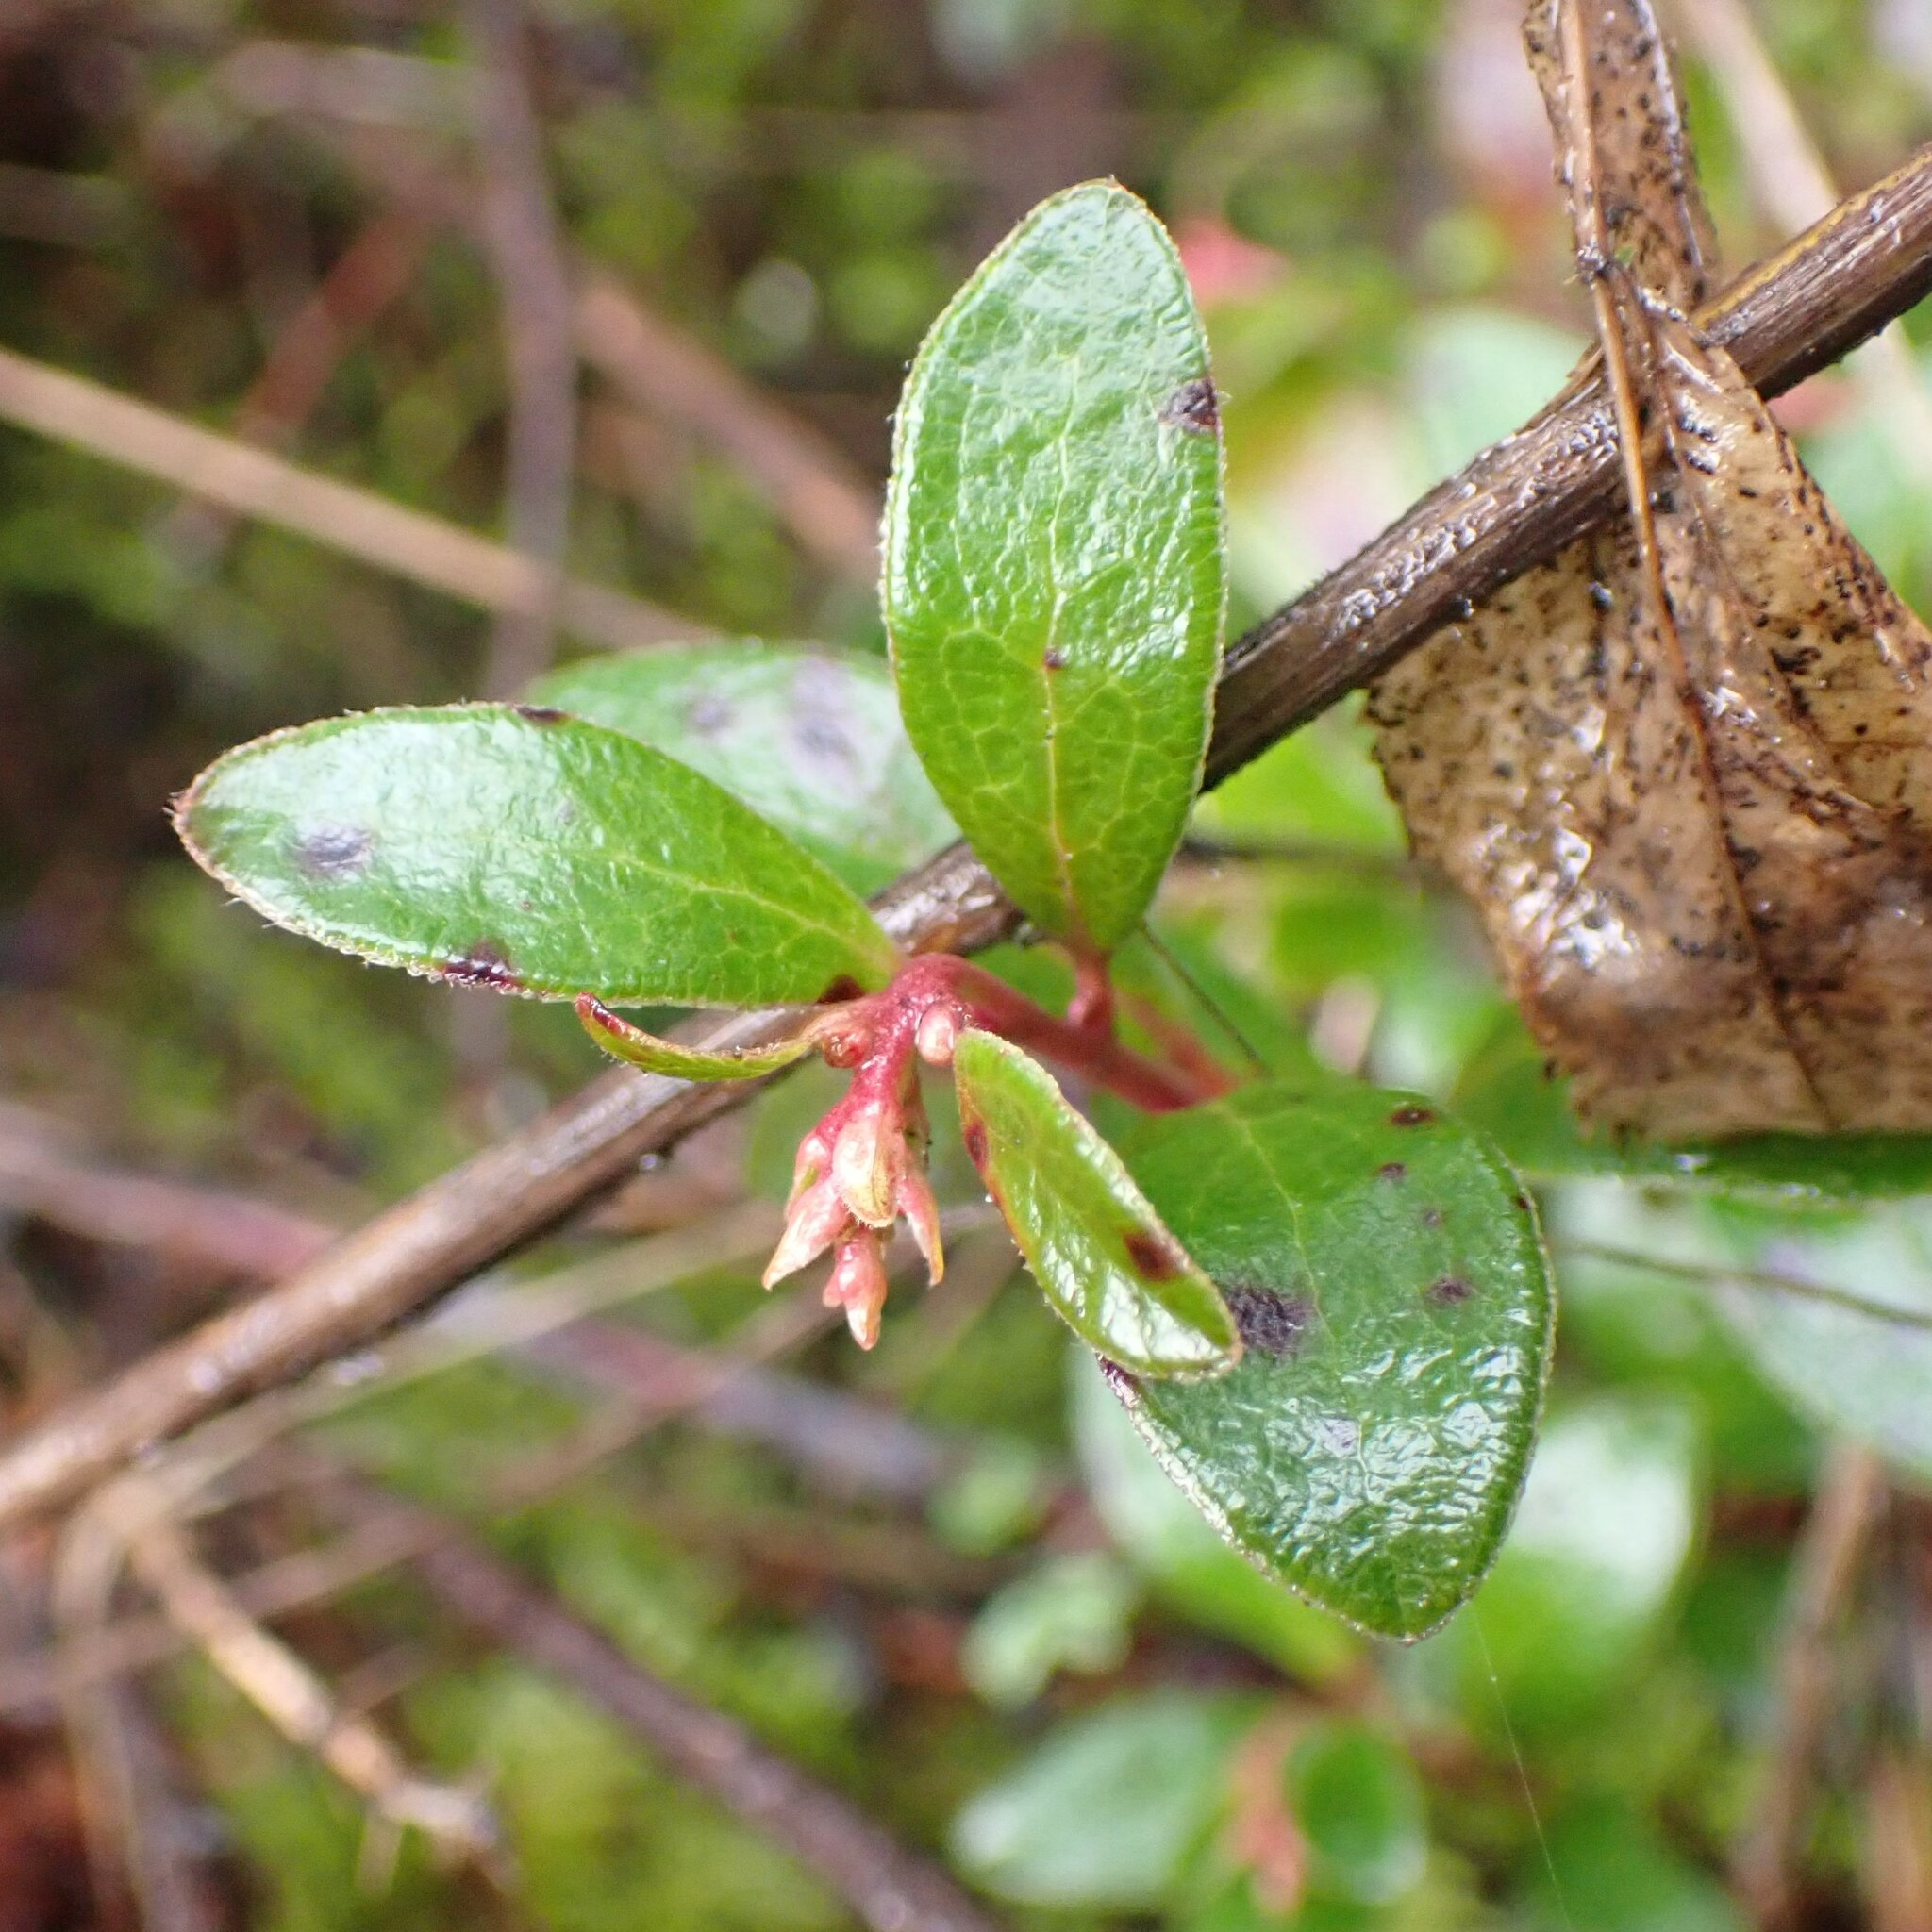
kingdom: Plantae
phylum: Tracheophyta
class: Magnoliopsida
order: Ericales
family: Ericaceae
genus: Arctostaphylos
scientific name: Arctostaphylos uva-ursi
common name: Bearberry
